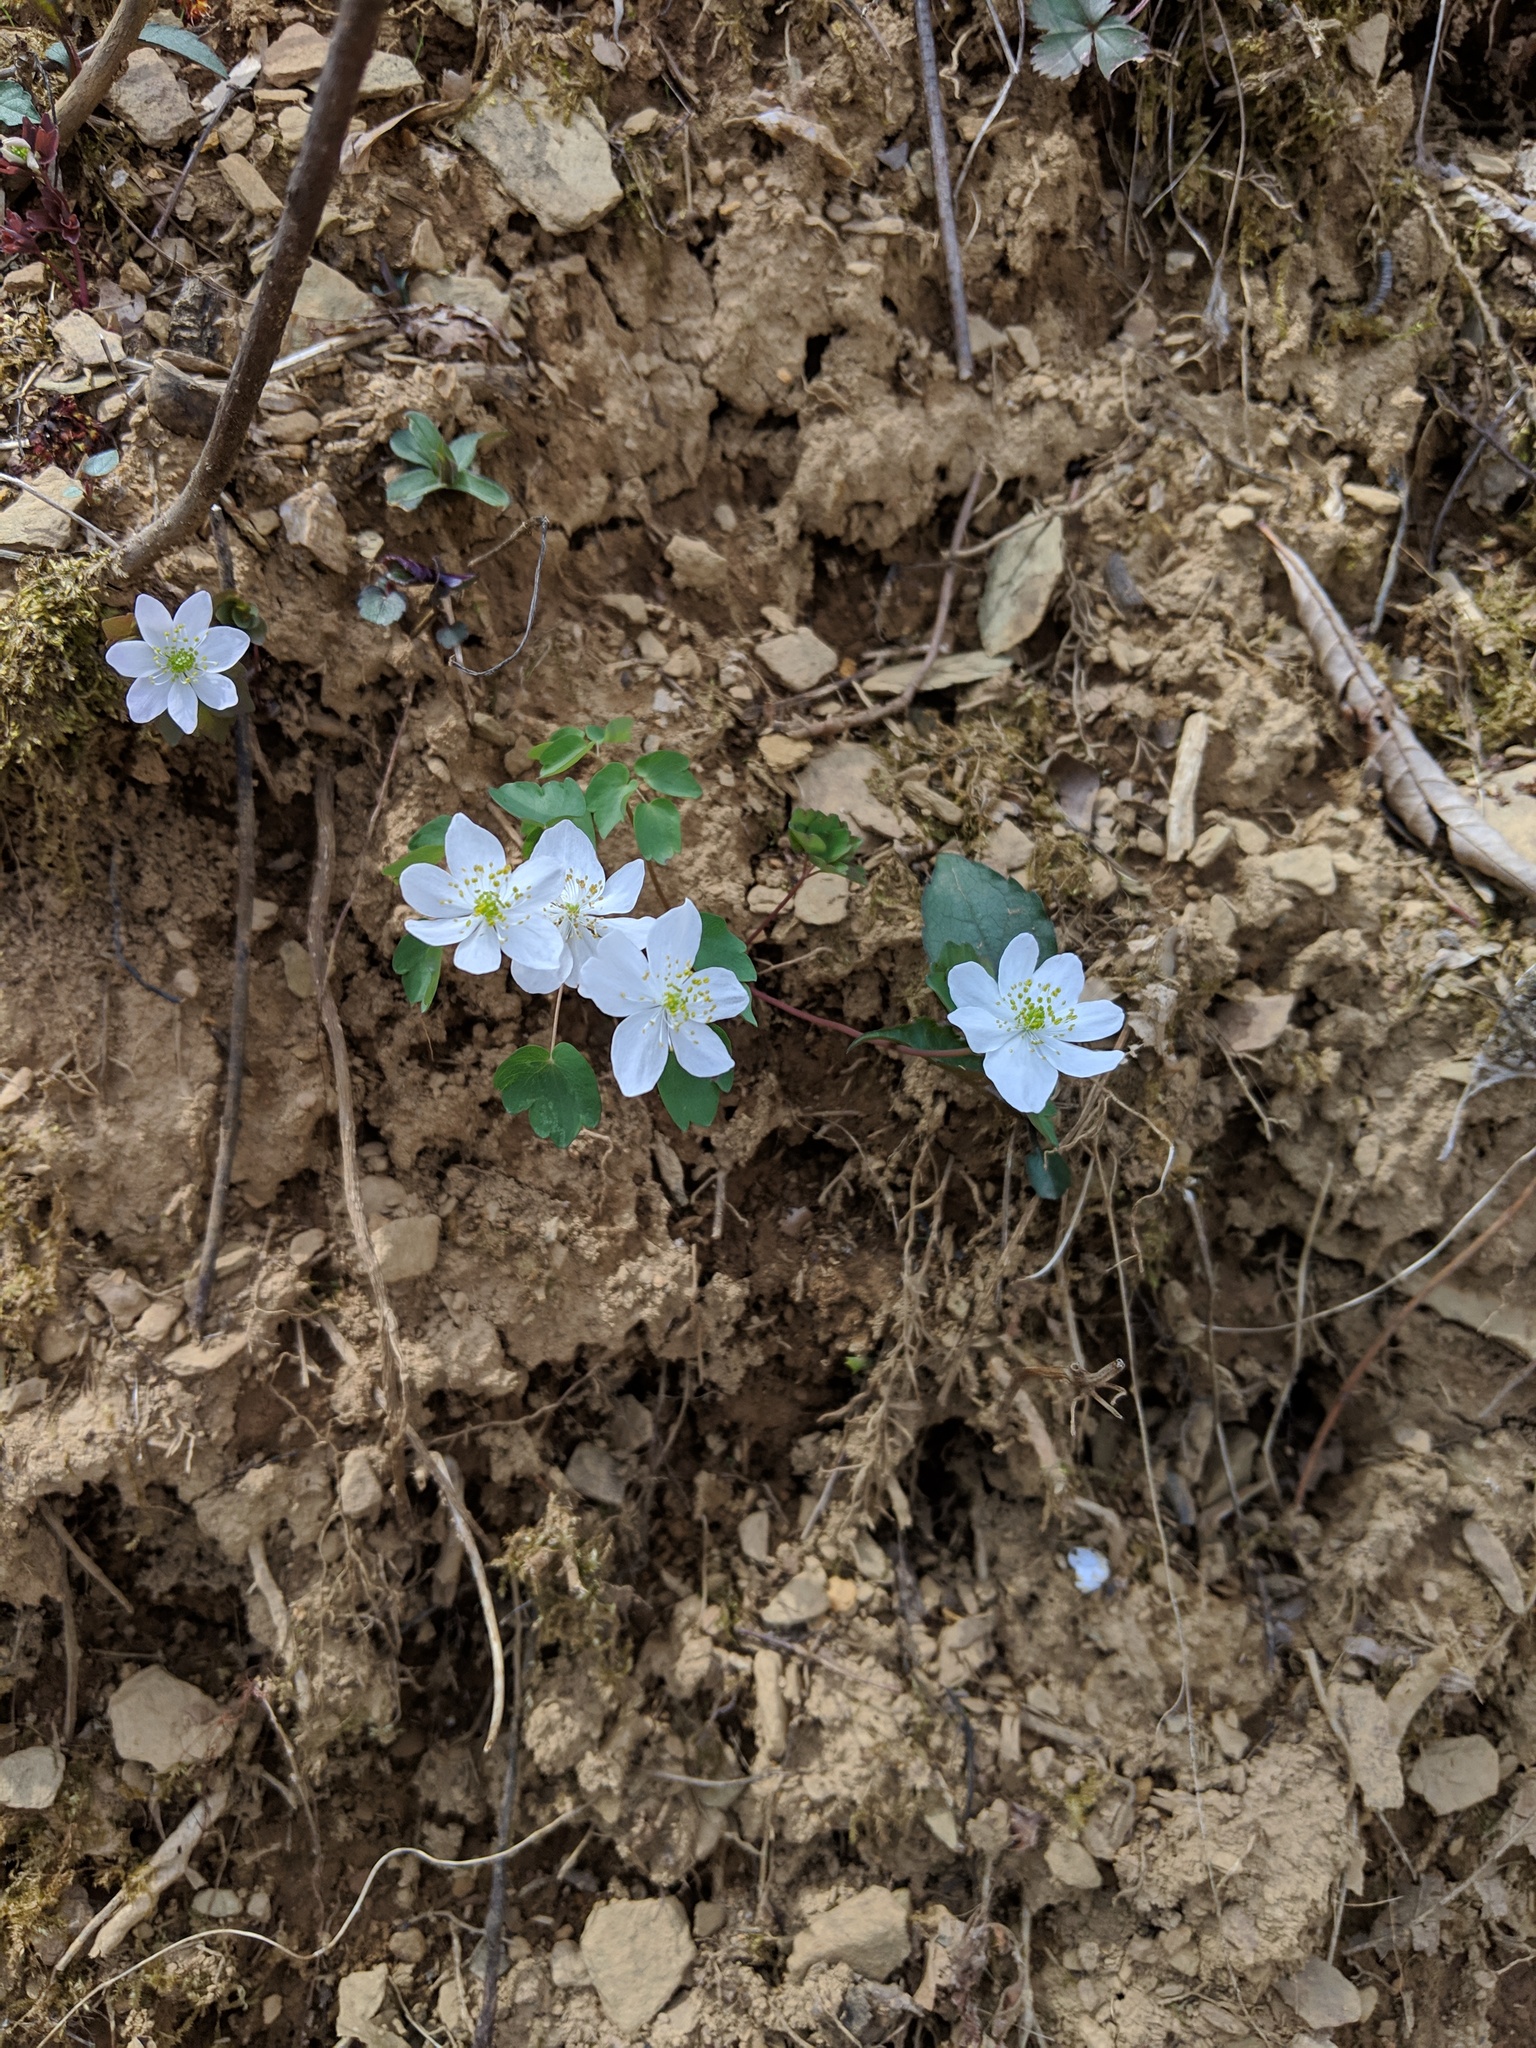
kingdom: Plantae
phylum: Tracheophyta
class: Magnoliopsida
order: Ranunculales
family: Ranunculaceae
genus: Thalictrum
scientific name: Thalictrum thalictroides
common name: Rue-anemone
